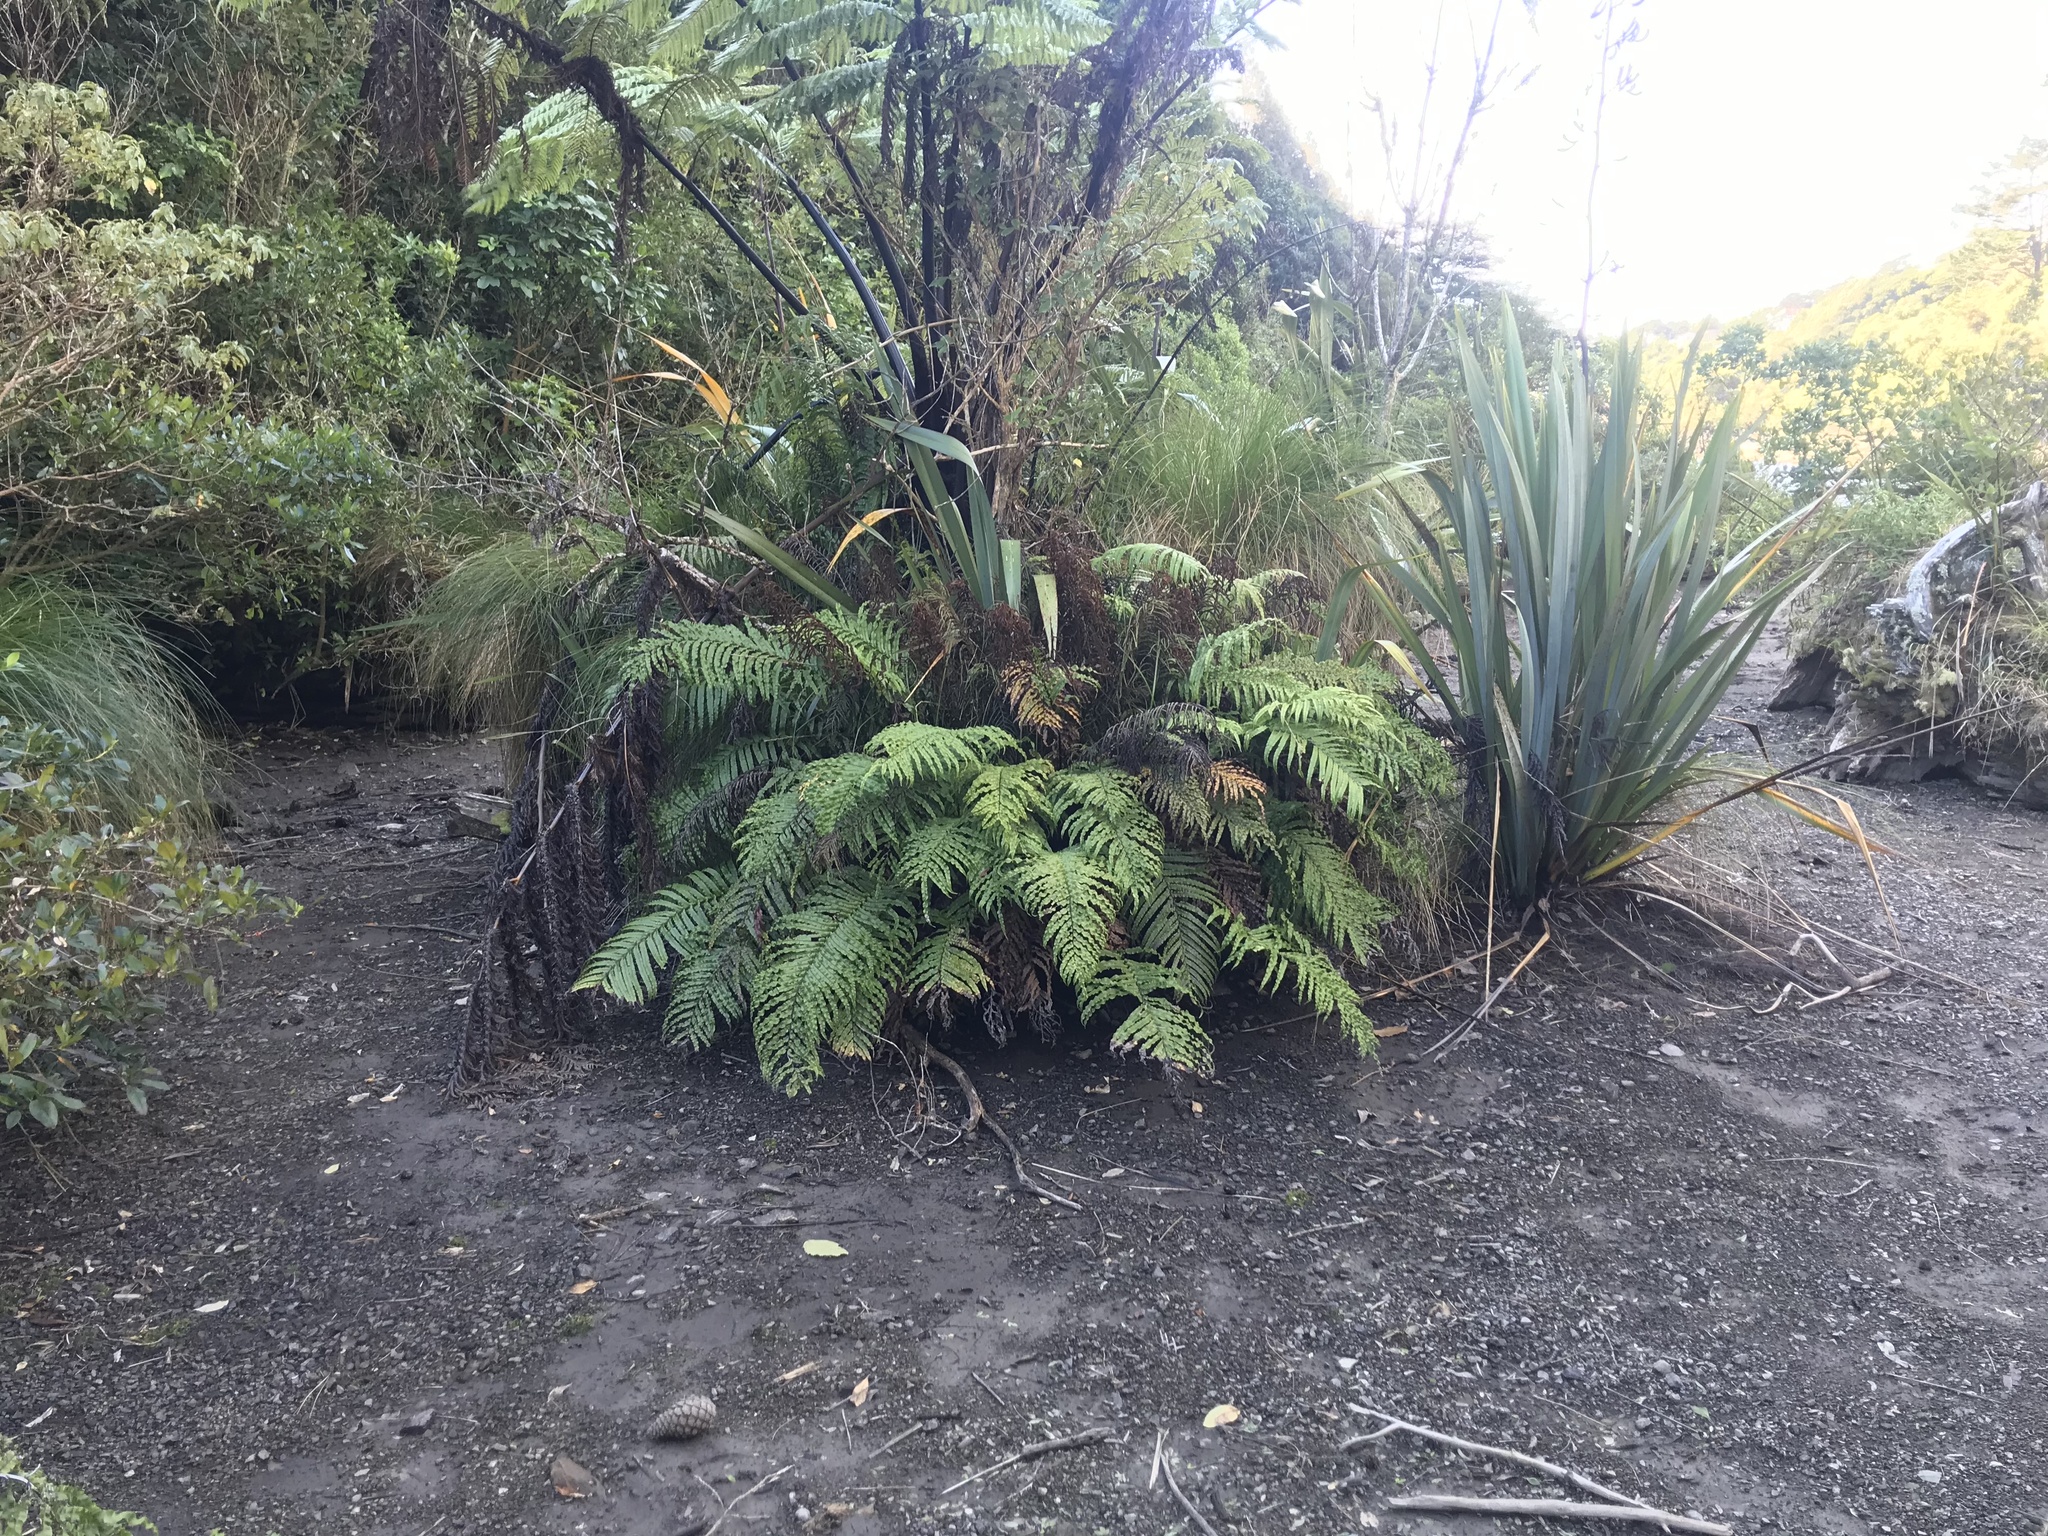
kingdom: Plantae
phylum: Tracheophyta
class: Polypodiopsida
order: Polypodiales
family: Blechnaceae
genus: Parablechnum
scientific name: Parablechnum novae-zelandiae
